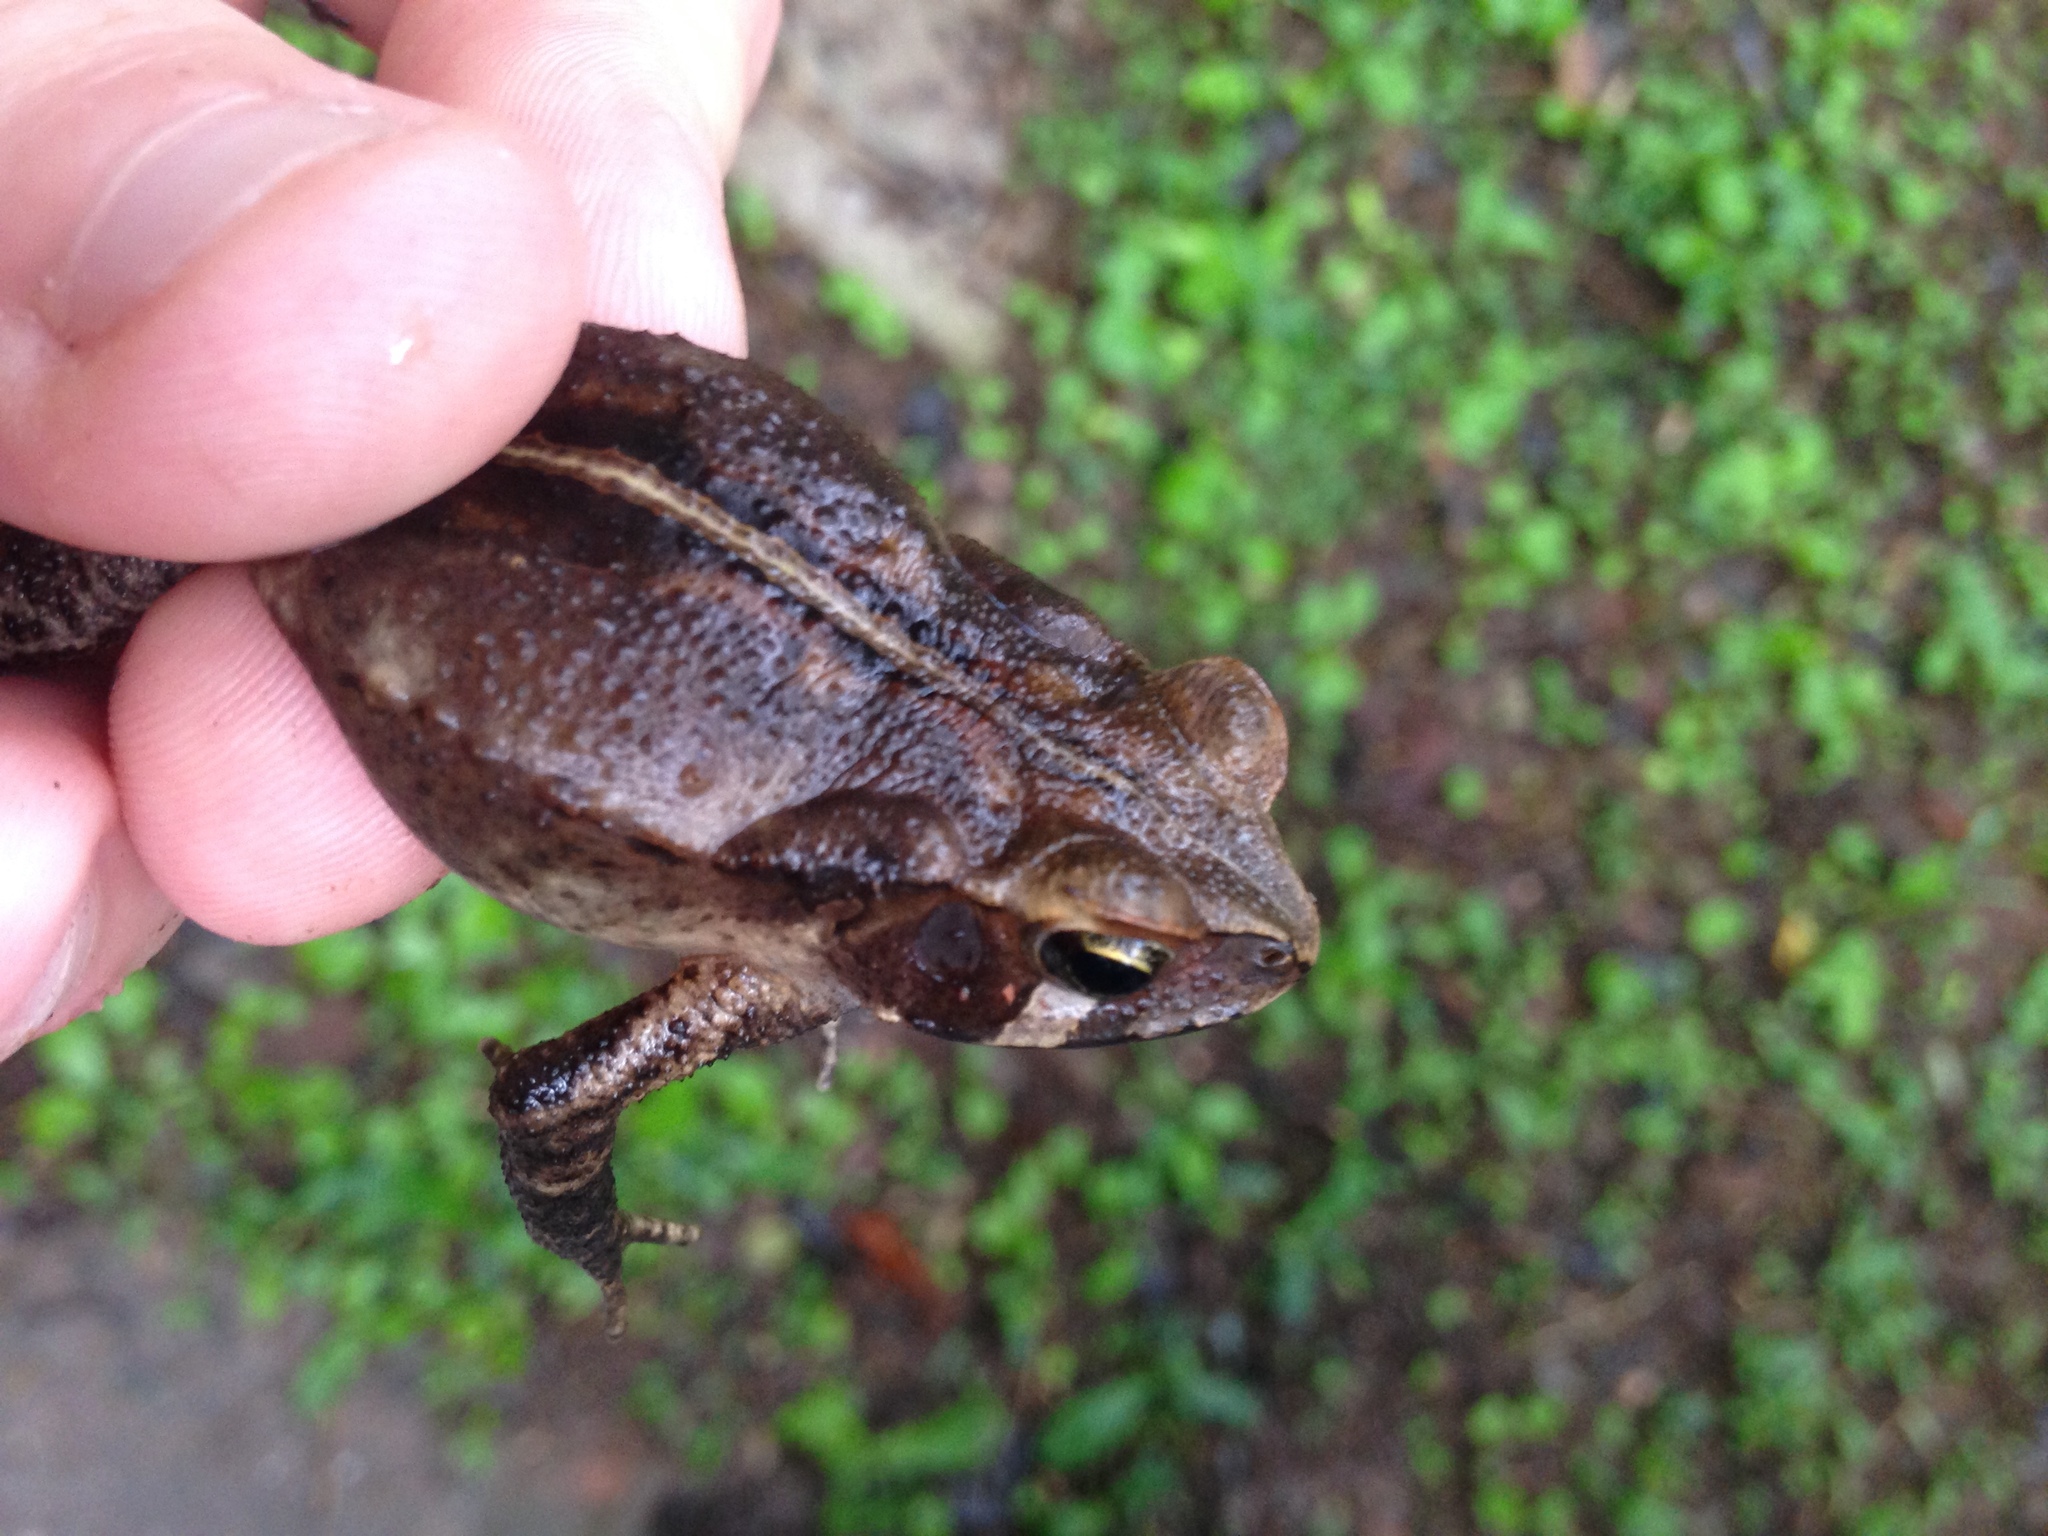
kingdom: Animalia
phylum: Chordata
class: Amphibia
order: Anura
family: Bufonidae
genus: Rhinella
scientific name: Rhinella ornata
